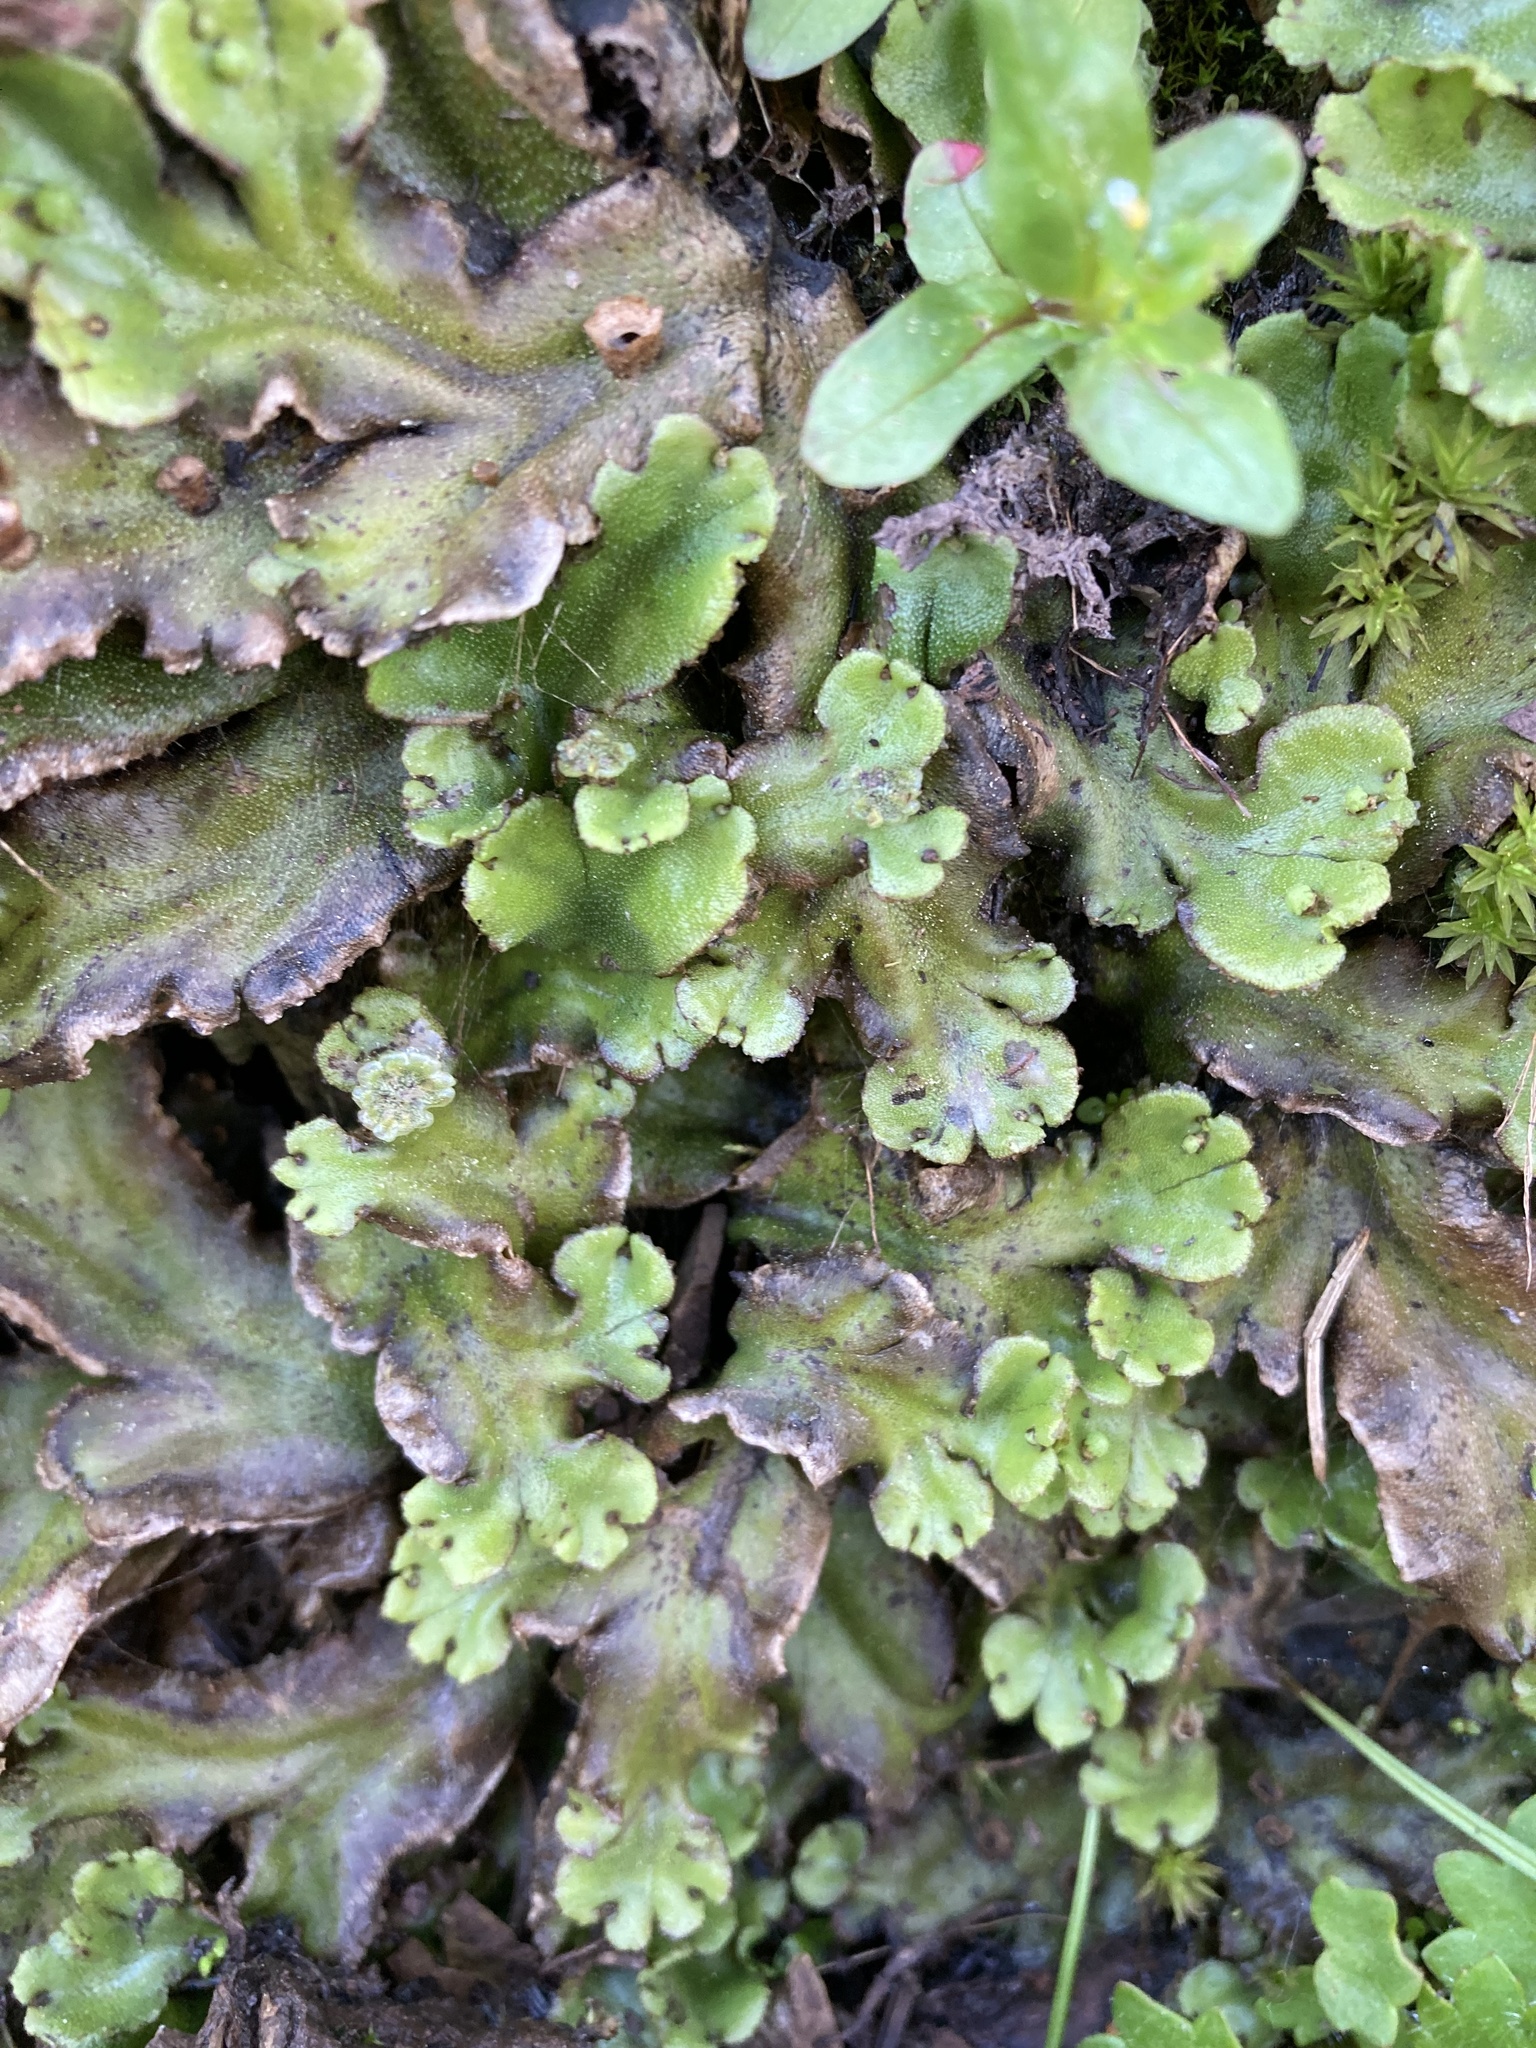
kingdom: Plantae
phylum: Marchantiophyta
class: Marchantiopsida
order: Marchantiales
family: Marchantiaceae
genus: Marchantia
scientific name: Marchantia polymorpha
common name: Common liverwort
